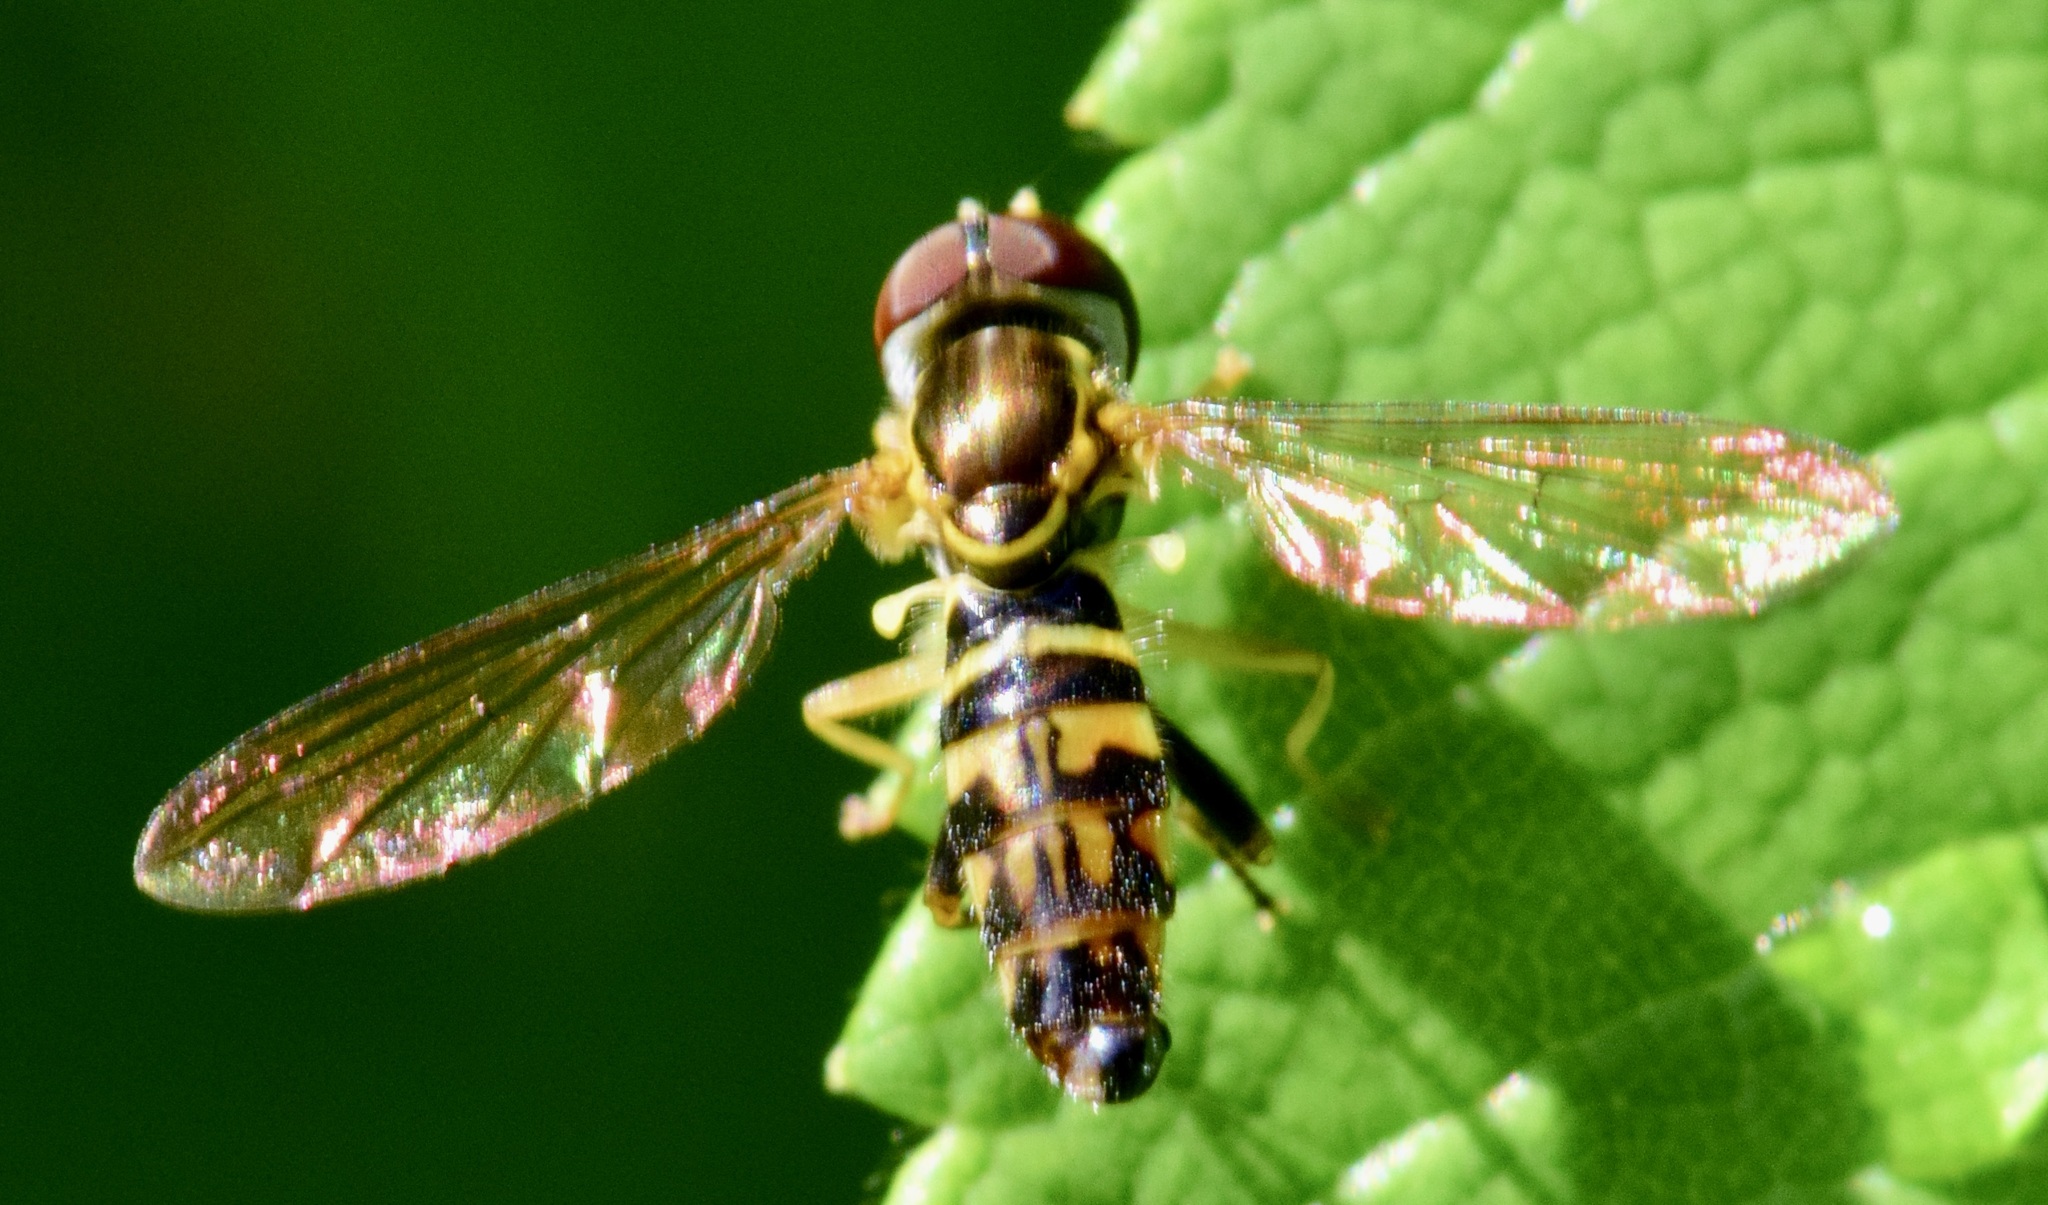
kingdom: Animalia
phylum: Arthropoda
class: Insecta
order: Diptera
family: Syrphidae
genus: Toxomerus
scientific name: Toxomerus geminatus
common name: Eastern calligrapher
